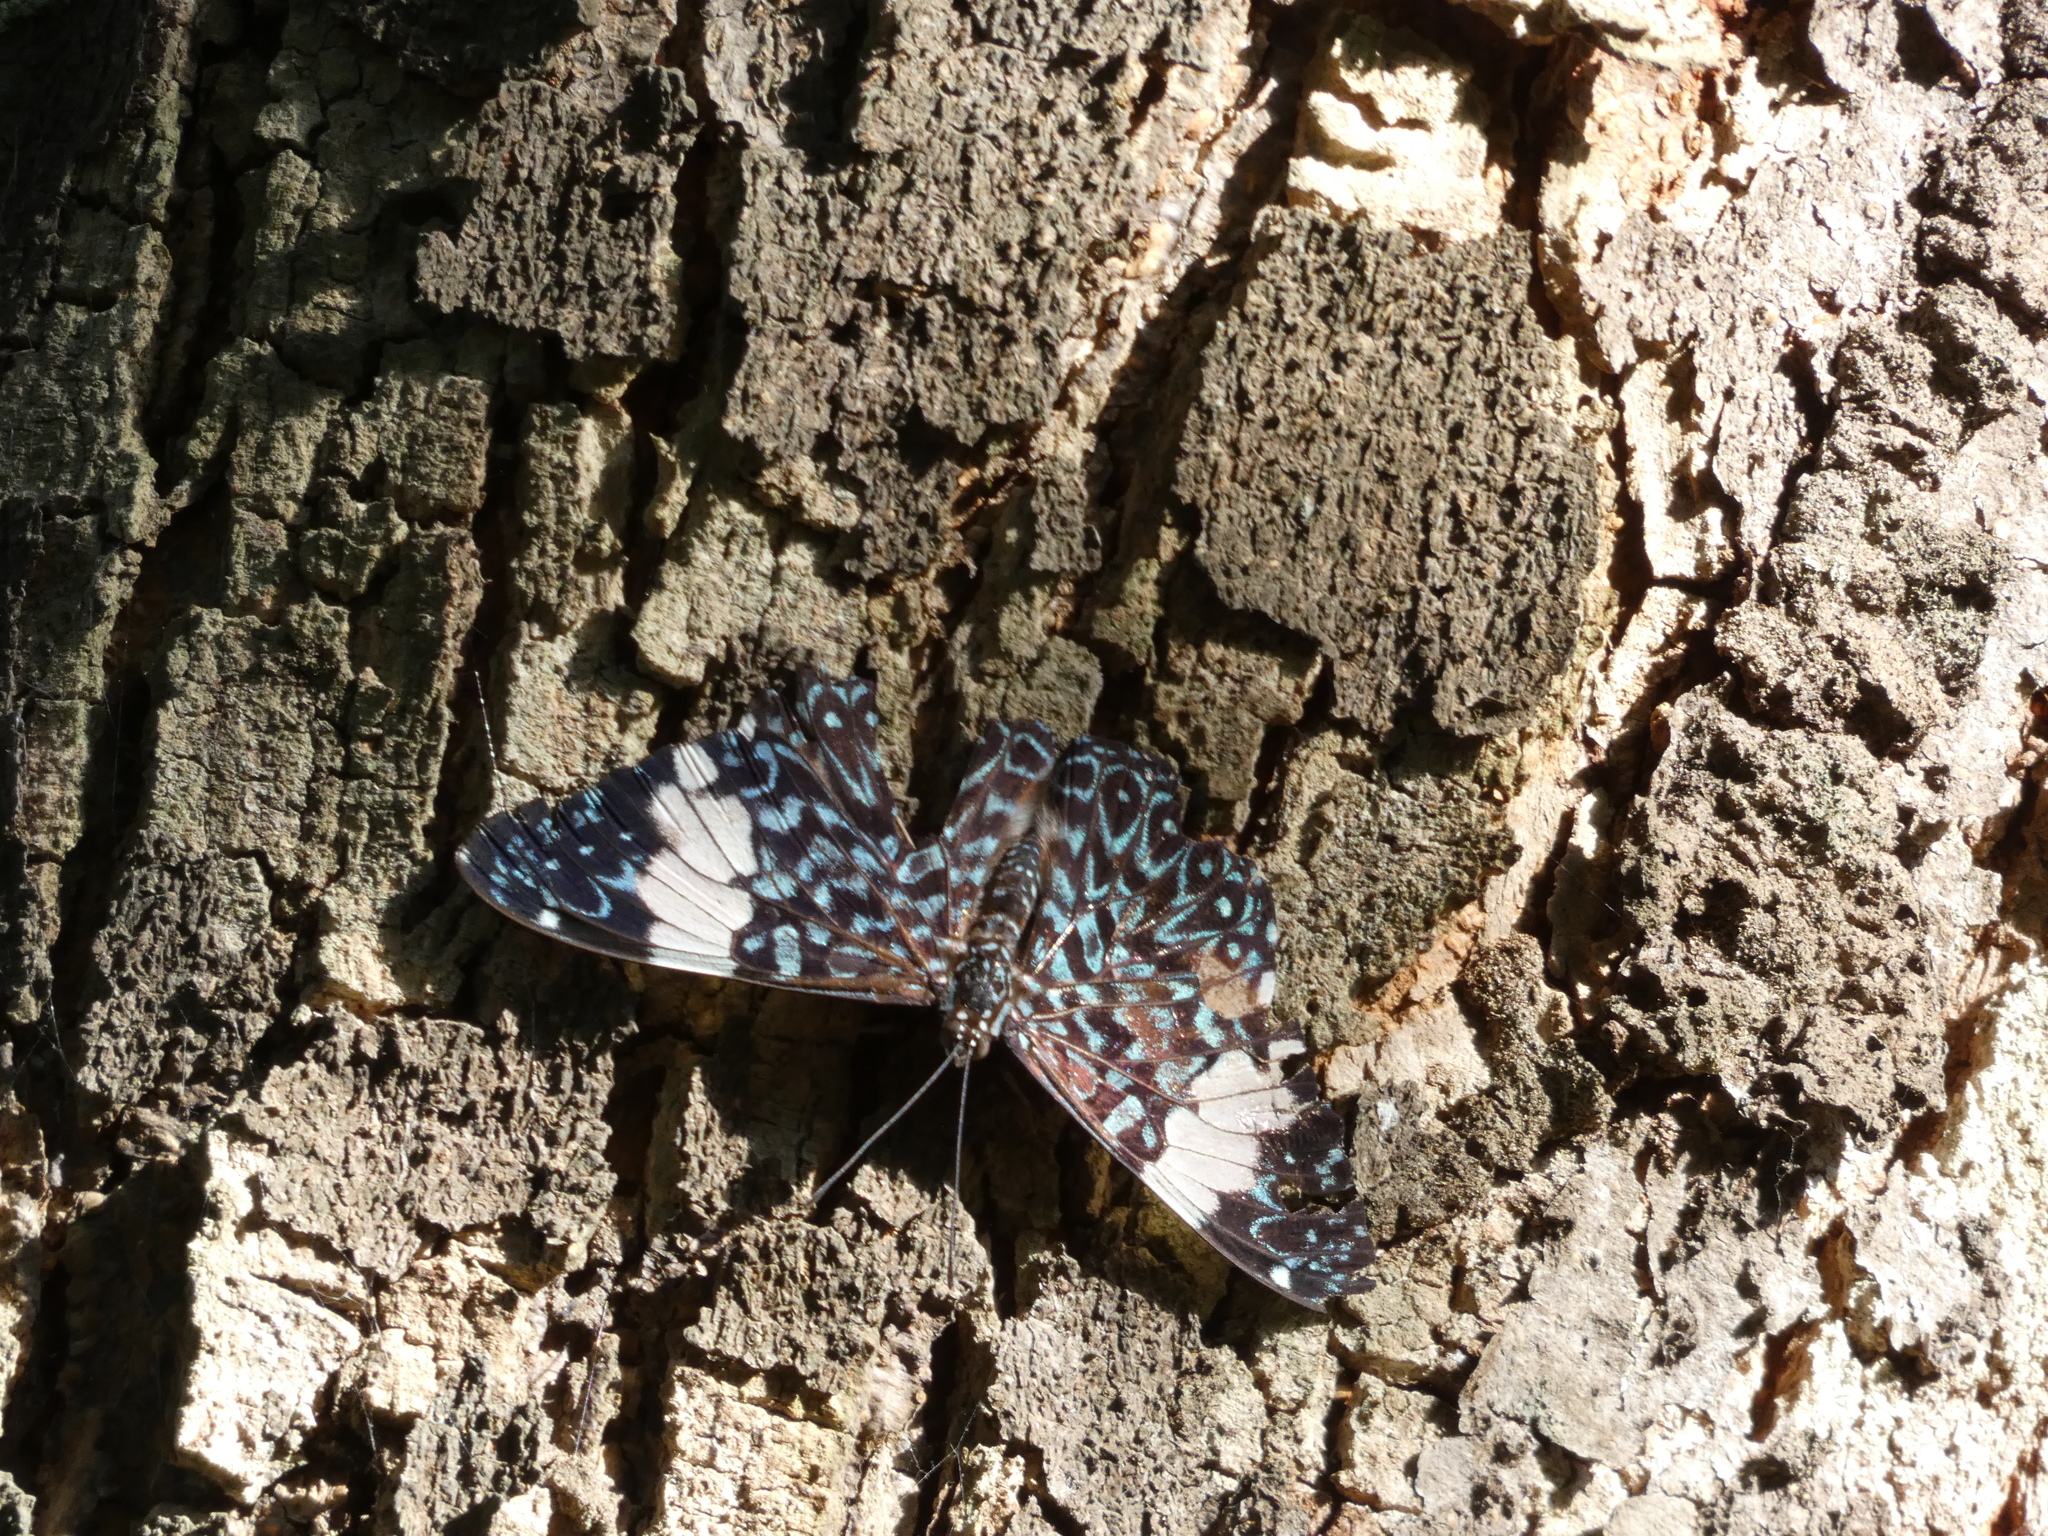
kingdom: Animalia
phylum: Arthropoda
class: Insecta
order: Lepidoptera
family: Nymphalidae
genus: Hamadryas
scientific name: Hamadryas amphinome
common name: Red cracker
